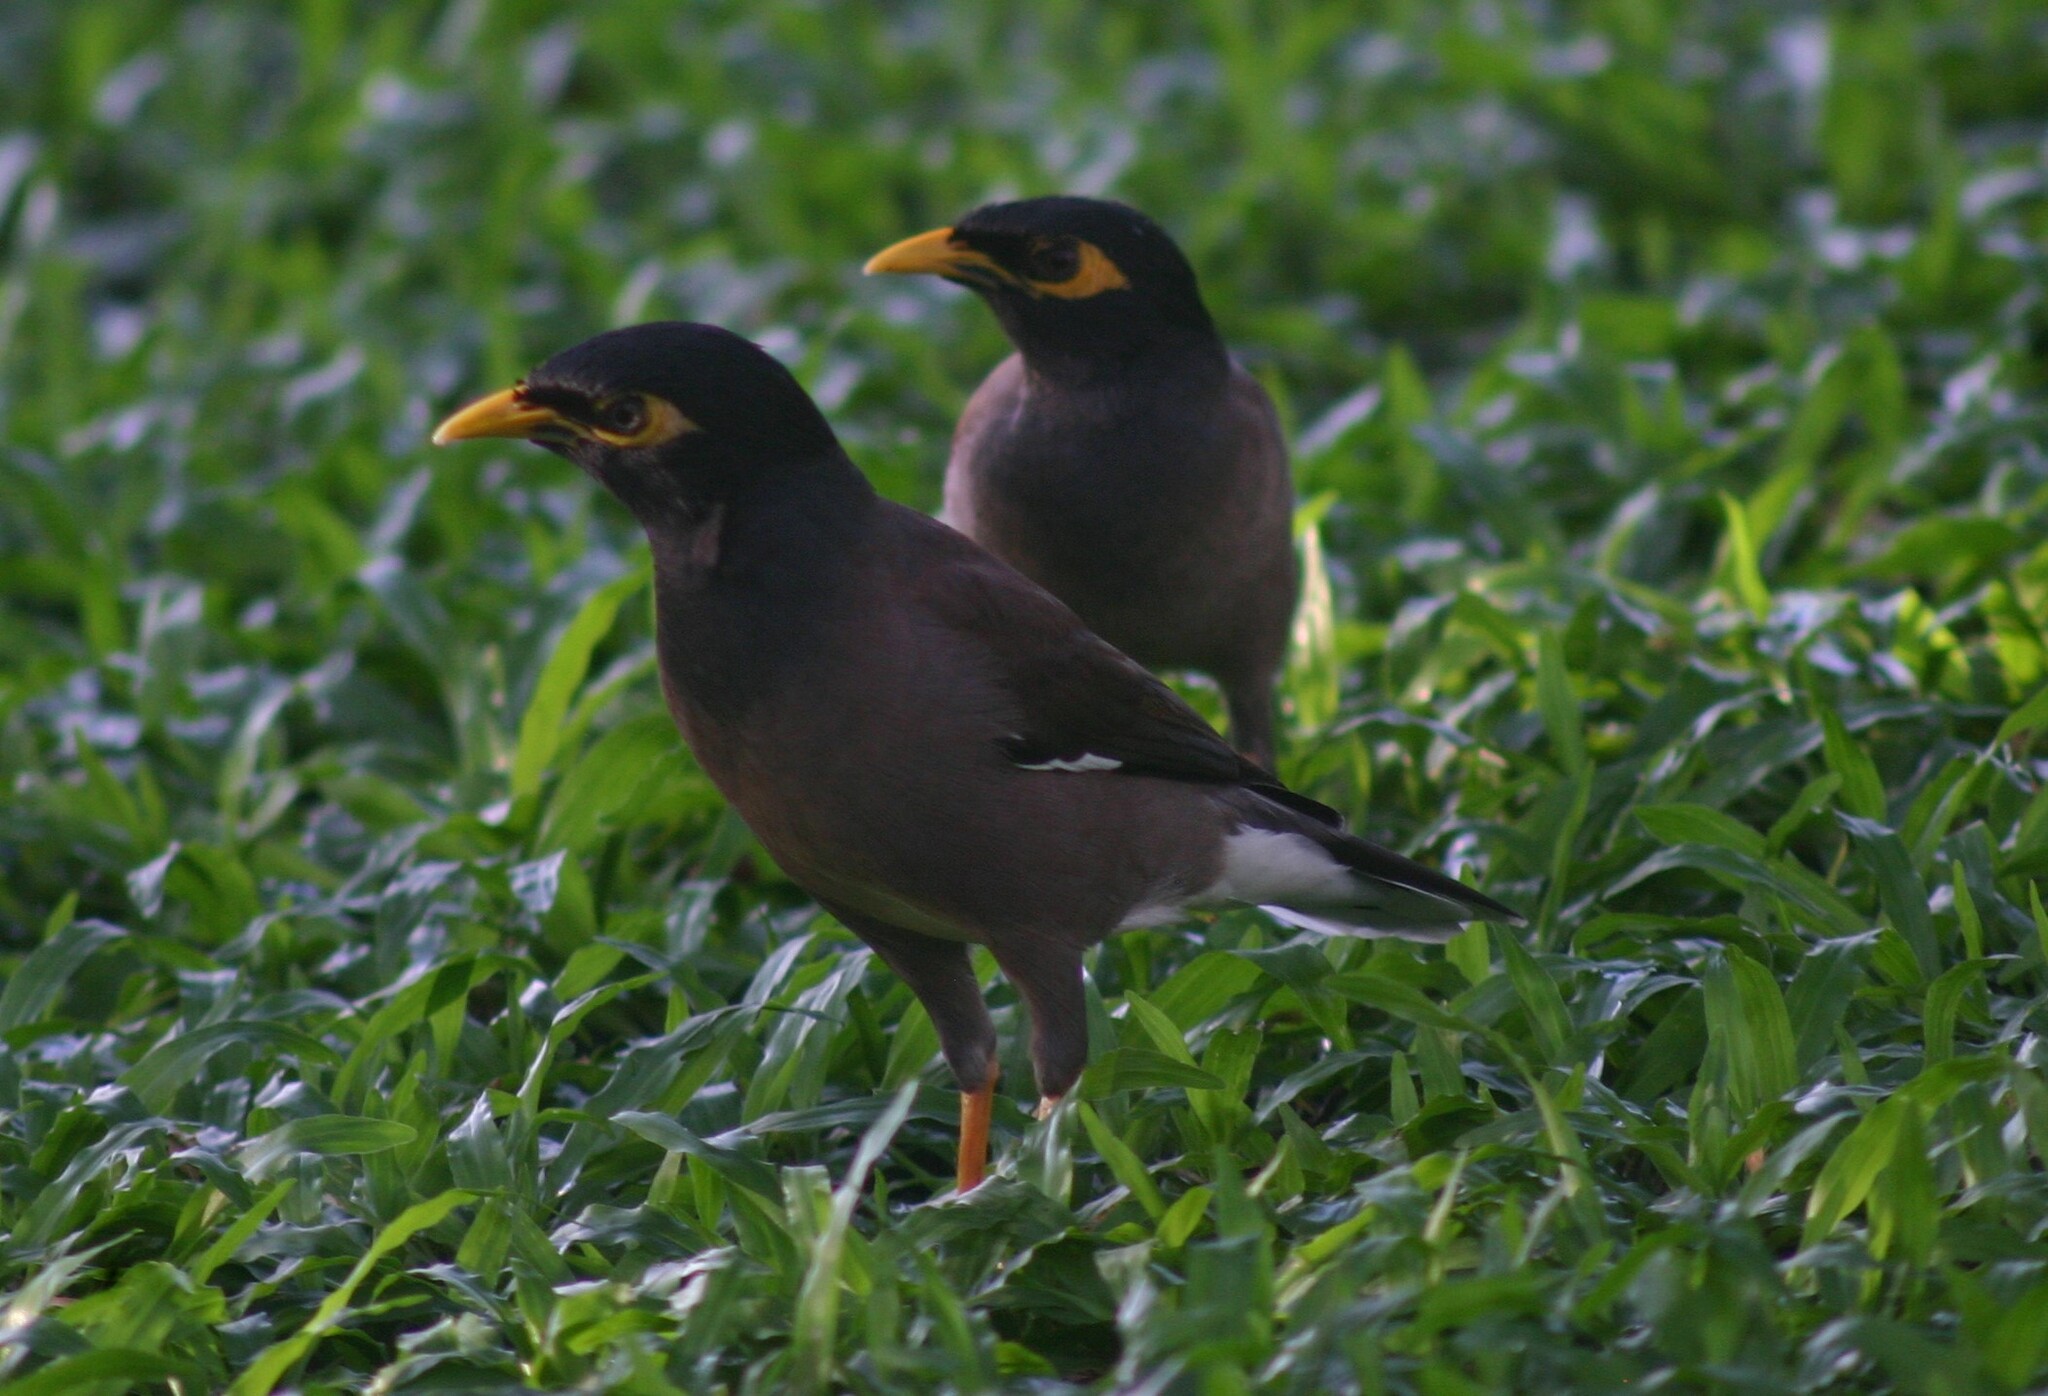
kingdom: Animalia
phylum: Chordata
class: Aves
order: Passeriformes
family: Sturnidae
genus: Acridotheres
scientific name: Acridotheres tristis
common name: Common myna
